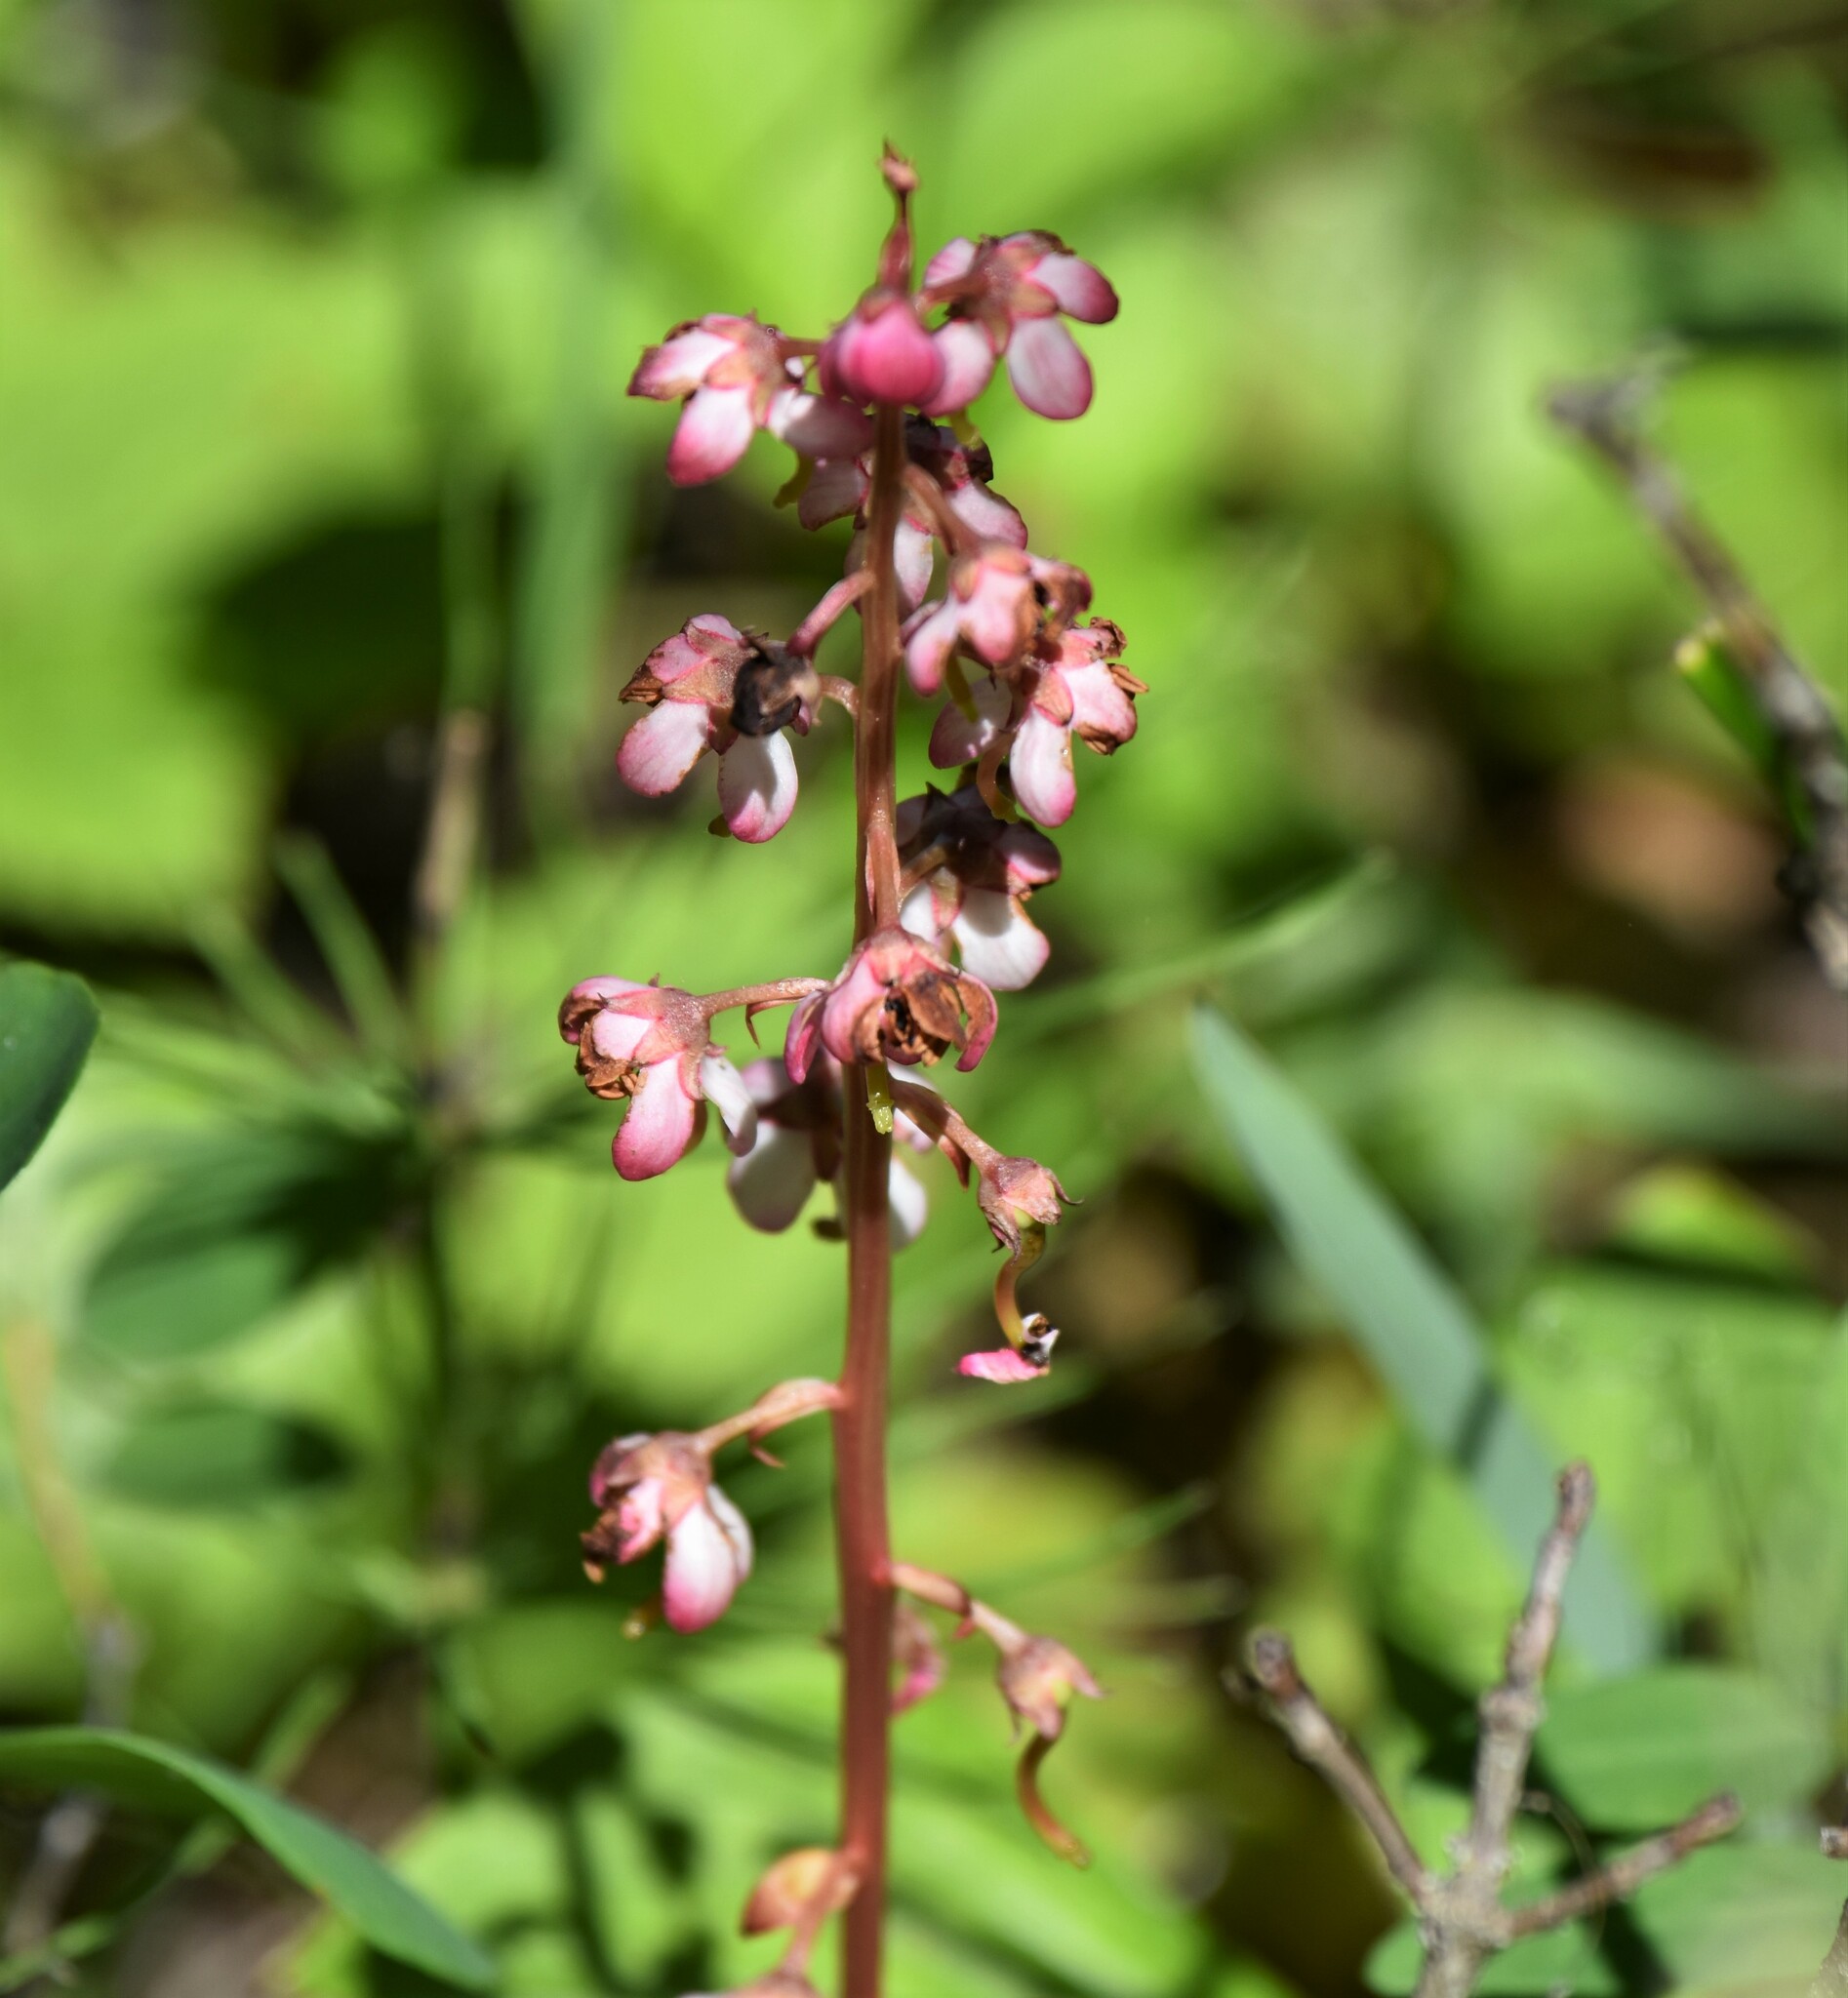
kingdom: Plantae
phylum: Tracheophyta
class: Magnoliopsida
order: Ericales
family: Ericaceae
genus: Pyrola
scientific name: Pyrola asarifolia
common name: Bog wintergreen
